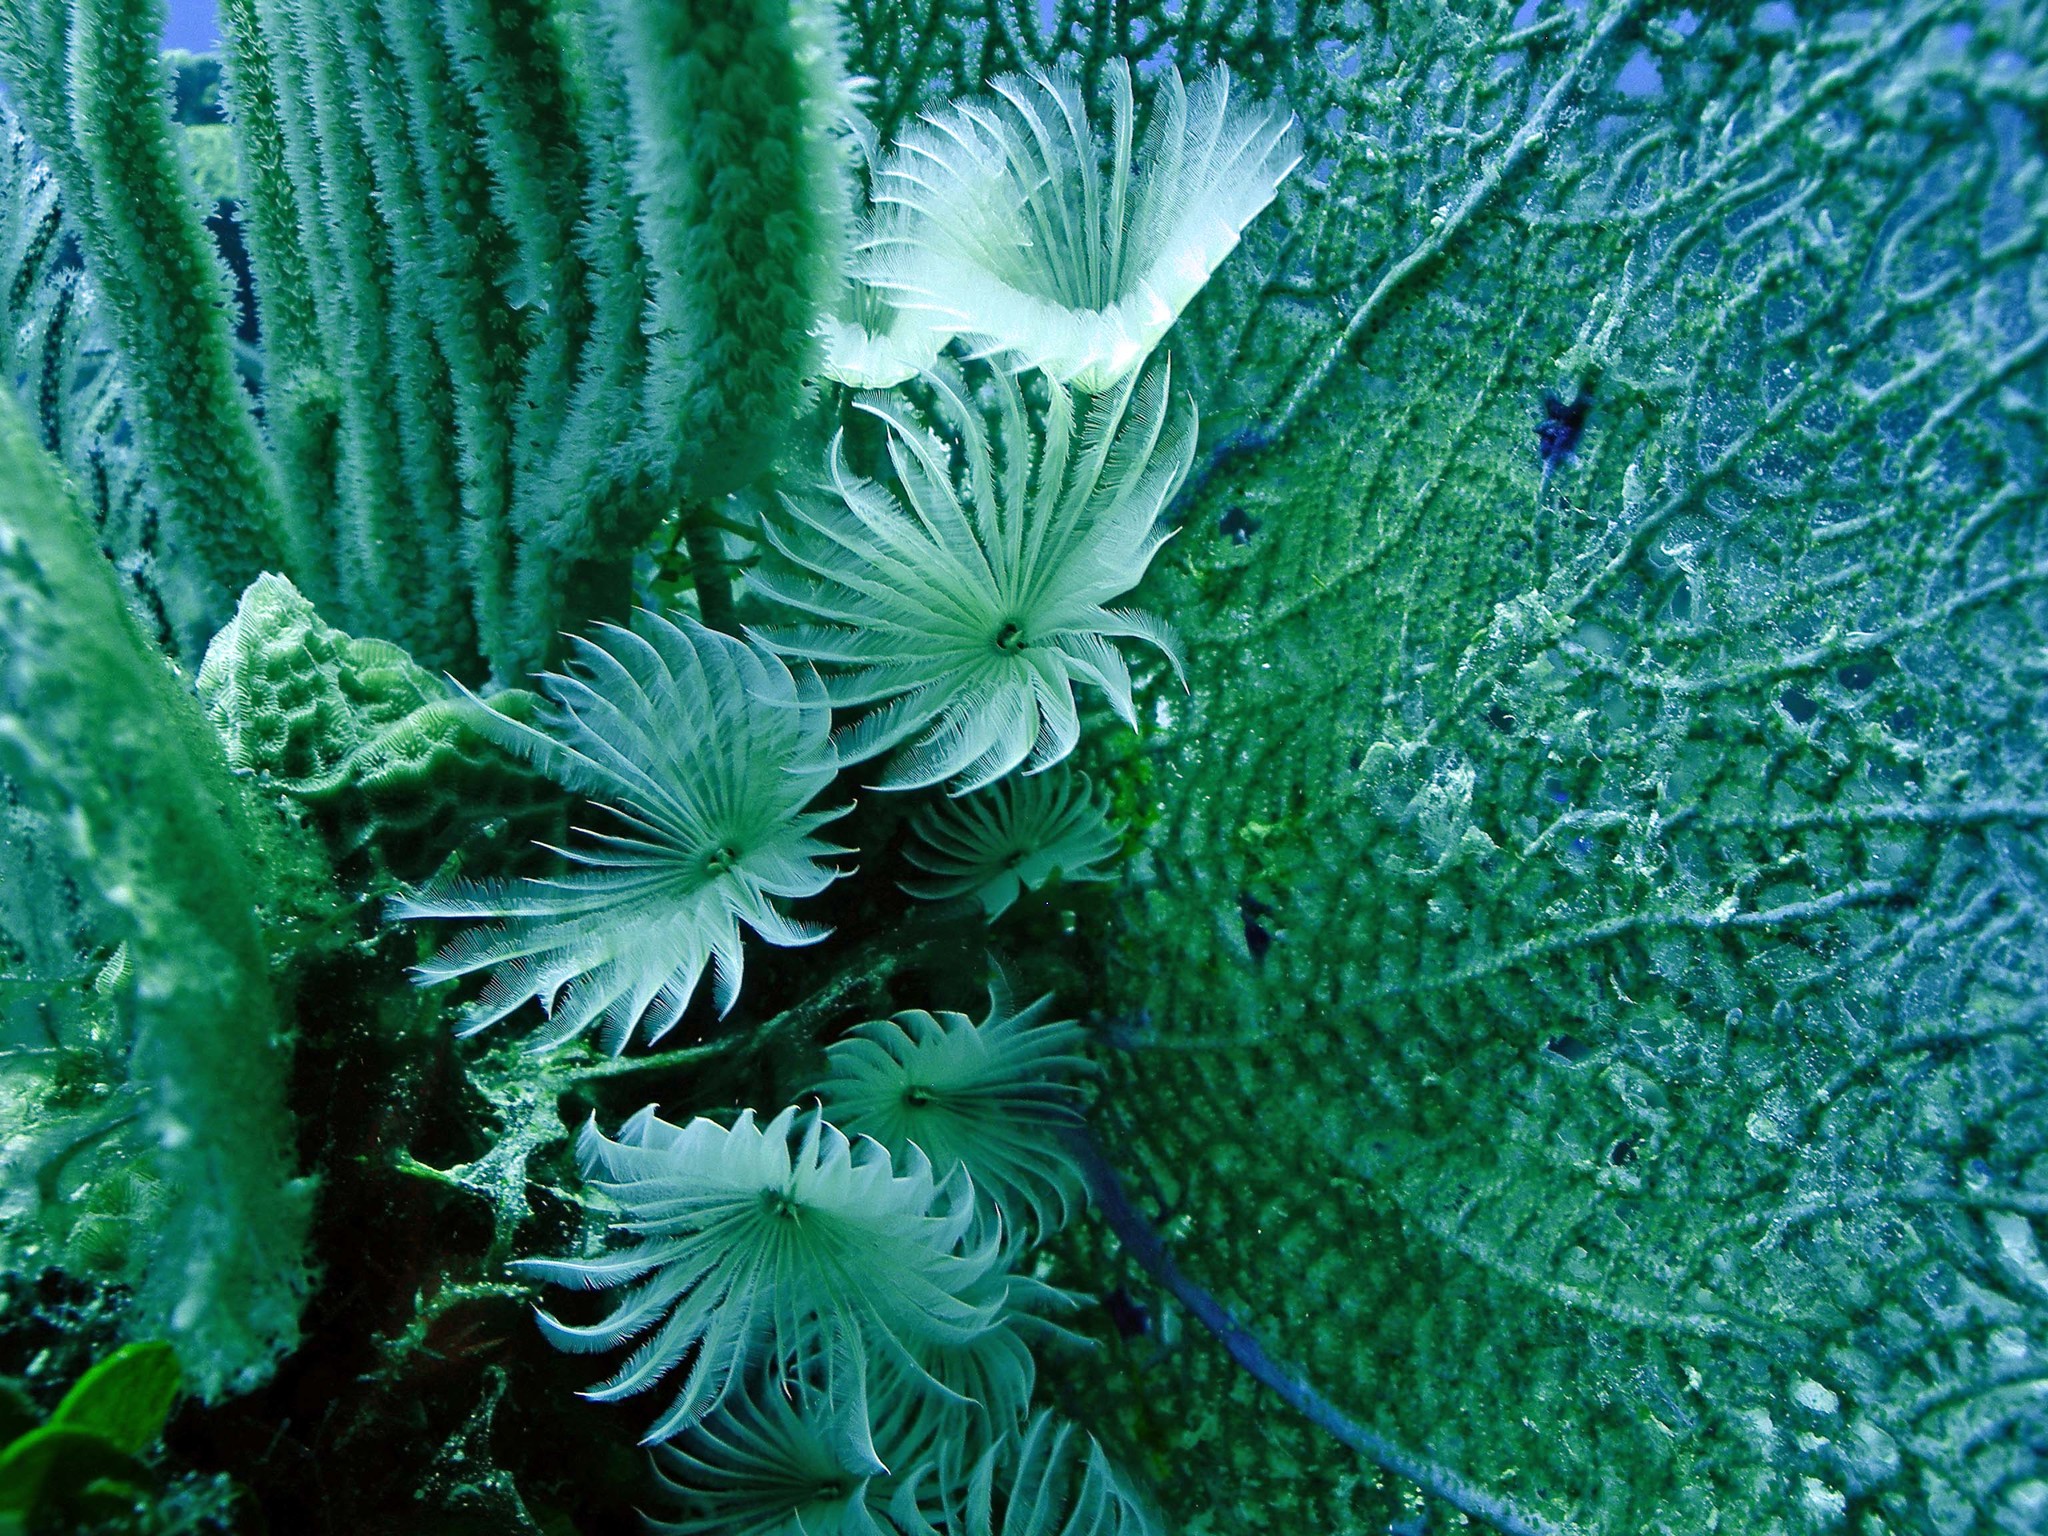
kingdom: Animalia
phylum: Annelida
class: Polychaeta
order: Sabellida
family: Sabellidae
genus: Bispira
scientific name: Bispira brunnea
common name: Social feather duster
